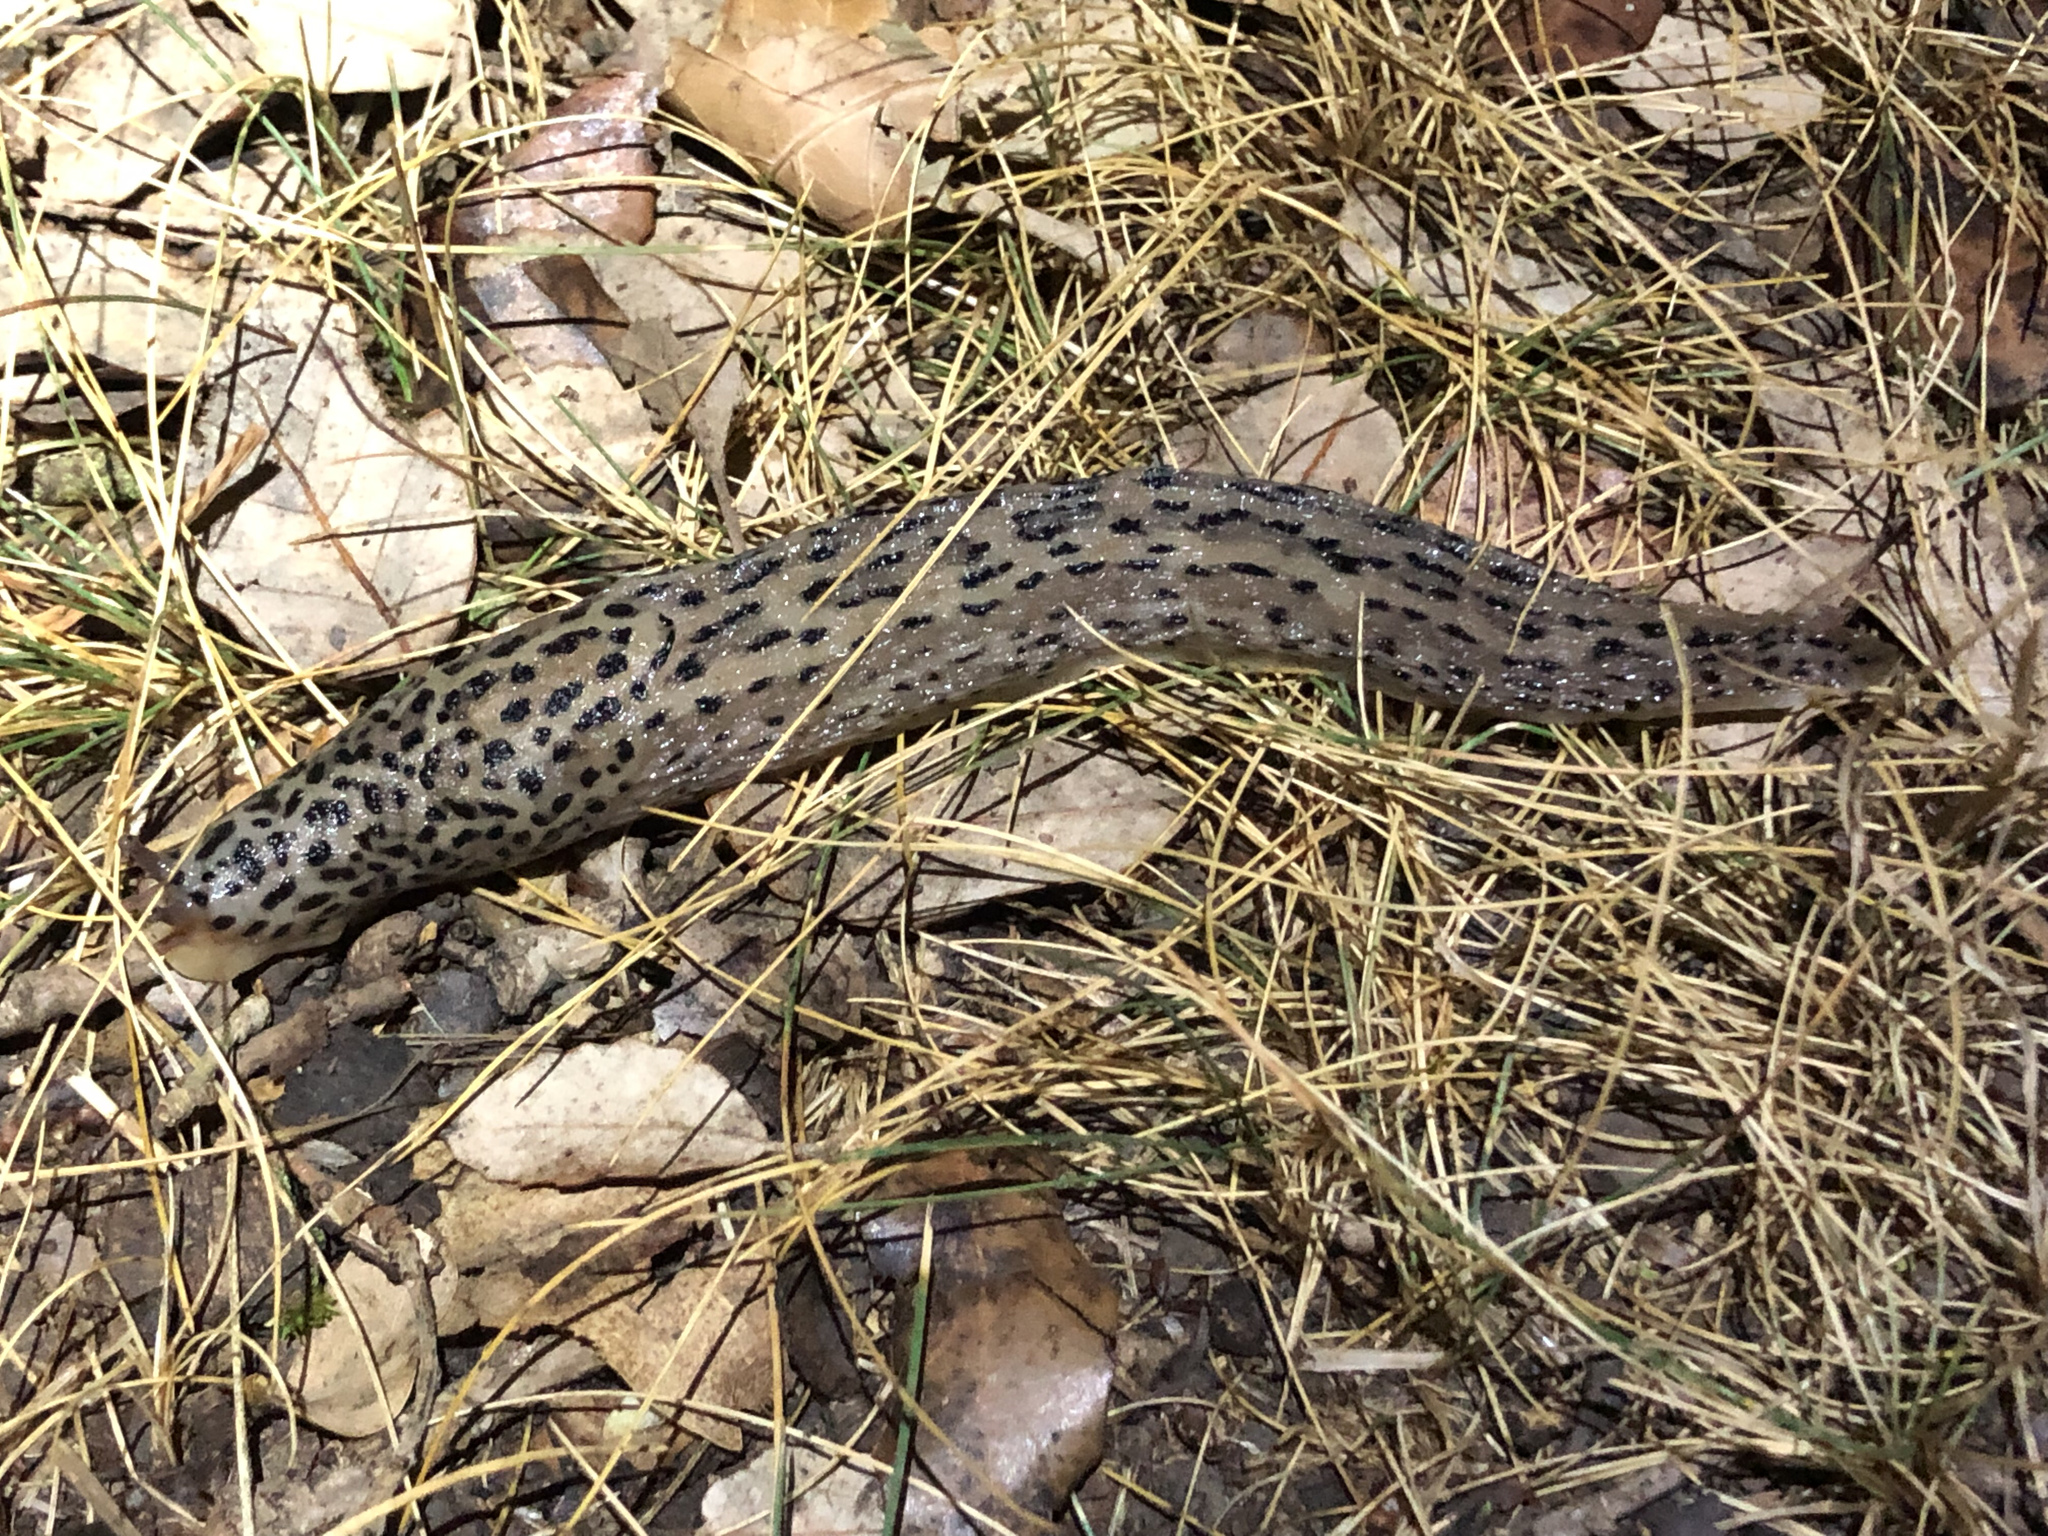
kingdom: Animalia
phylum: Mollusca
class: Gastropoda
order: Stylommatophora
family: Limacidae
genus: Limax
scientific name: Limax maximus
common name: Great grey slug
